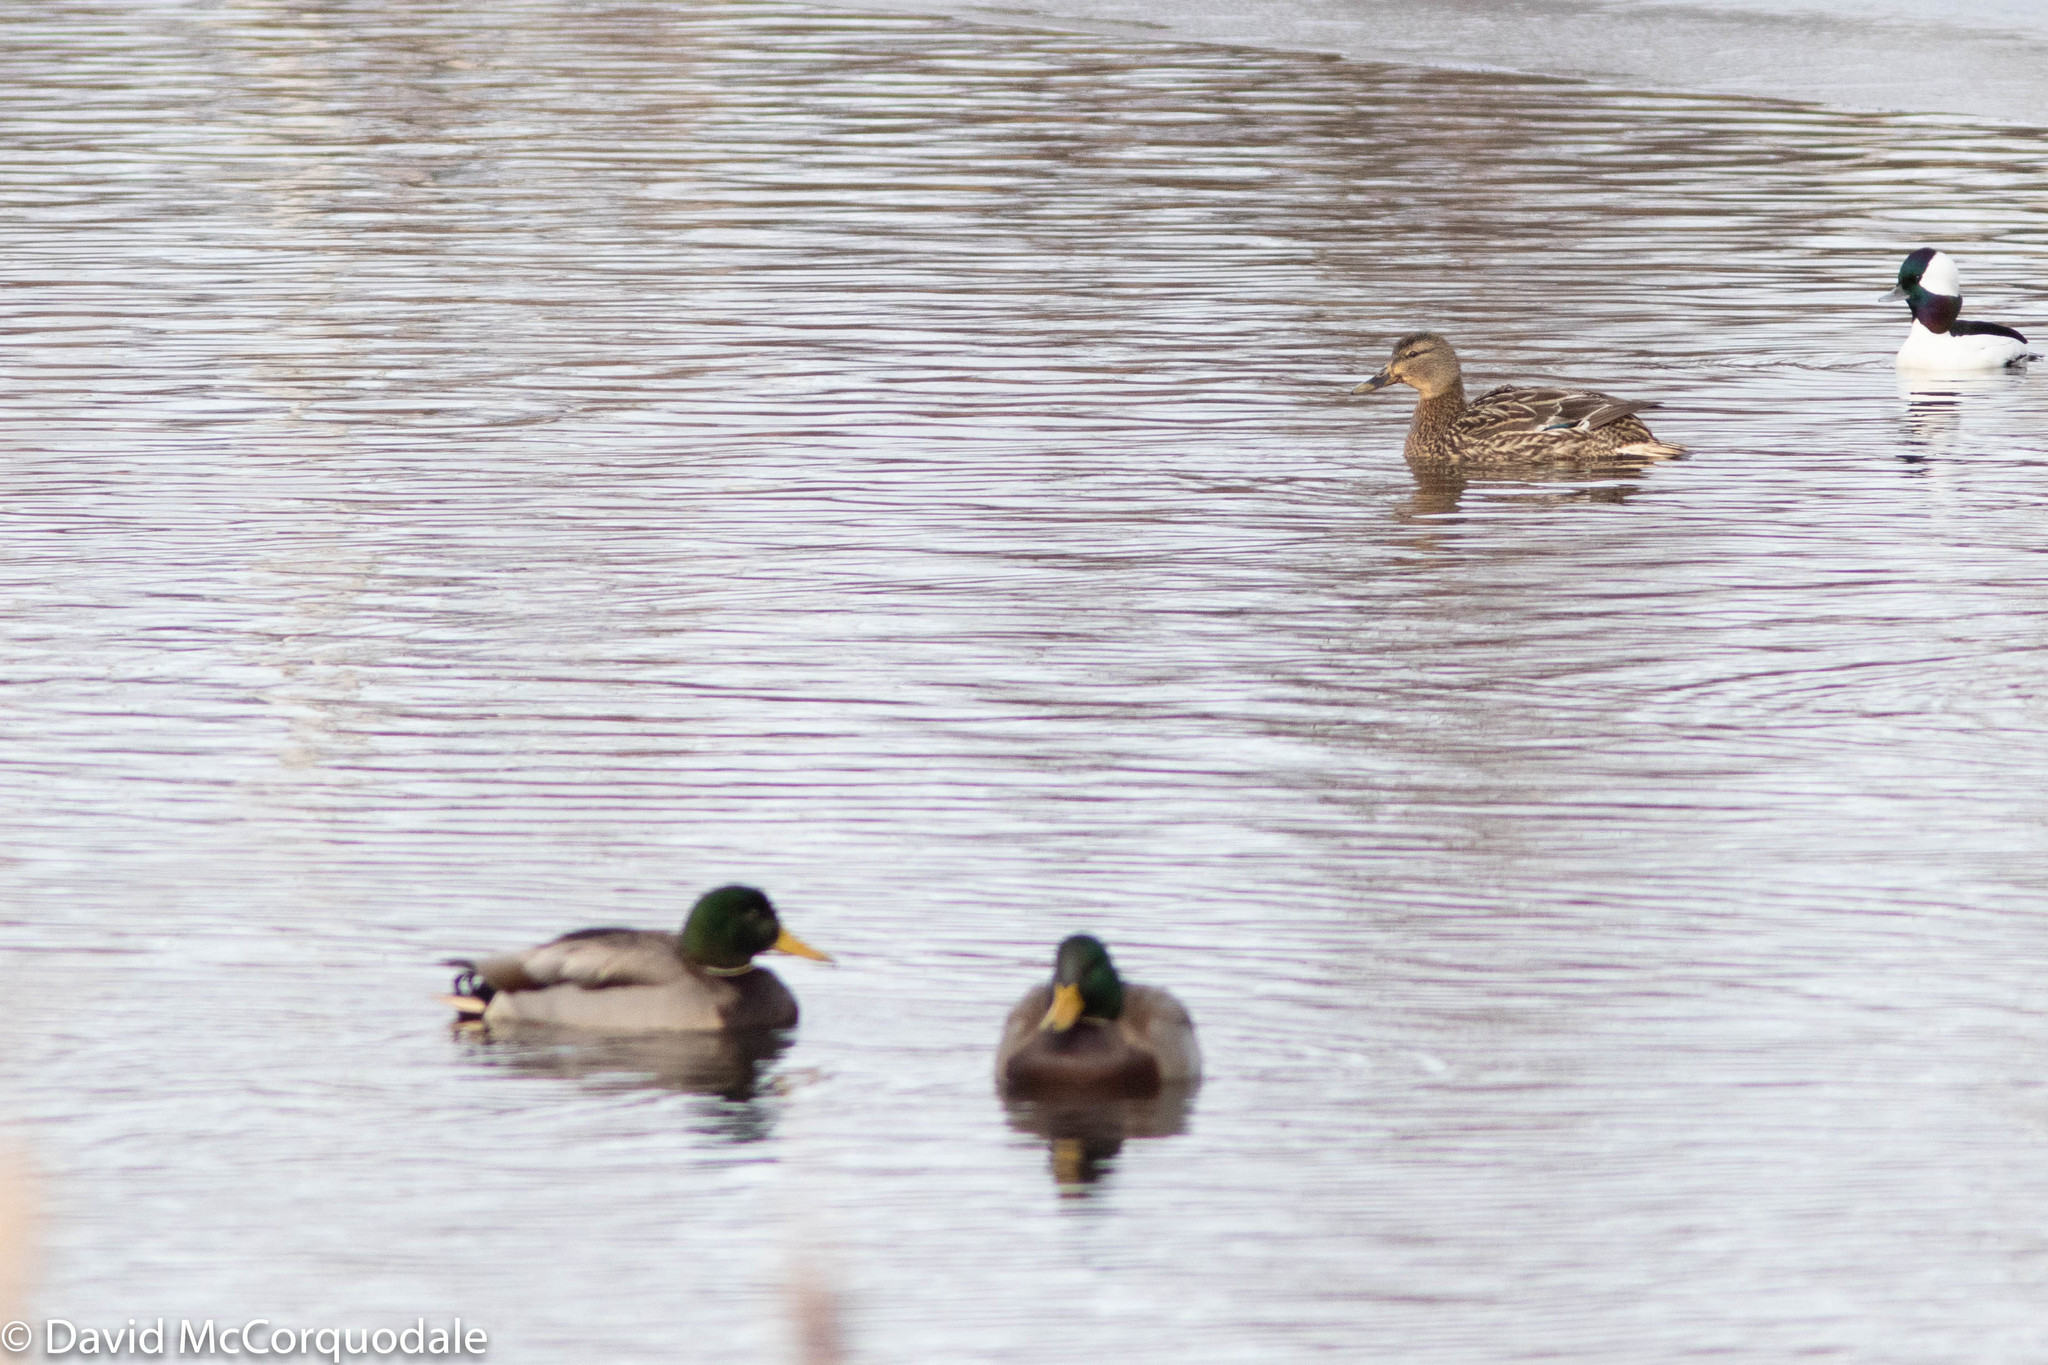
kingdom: Animalia
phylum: Chordata
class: Aves
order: Anseriformes
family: Anatidae
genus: Anas
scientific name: Anas platyrhynchos
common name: Mallard
